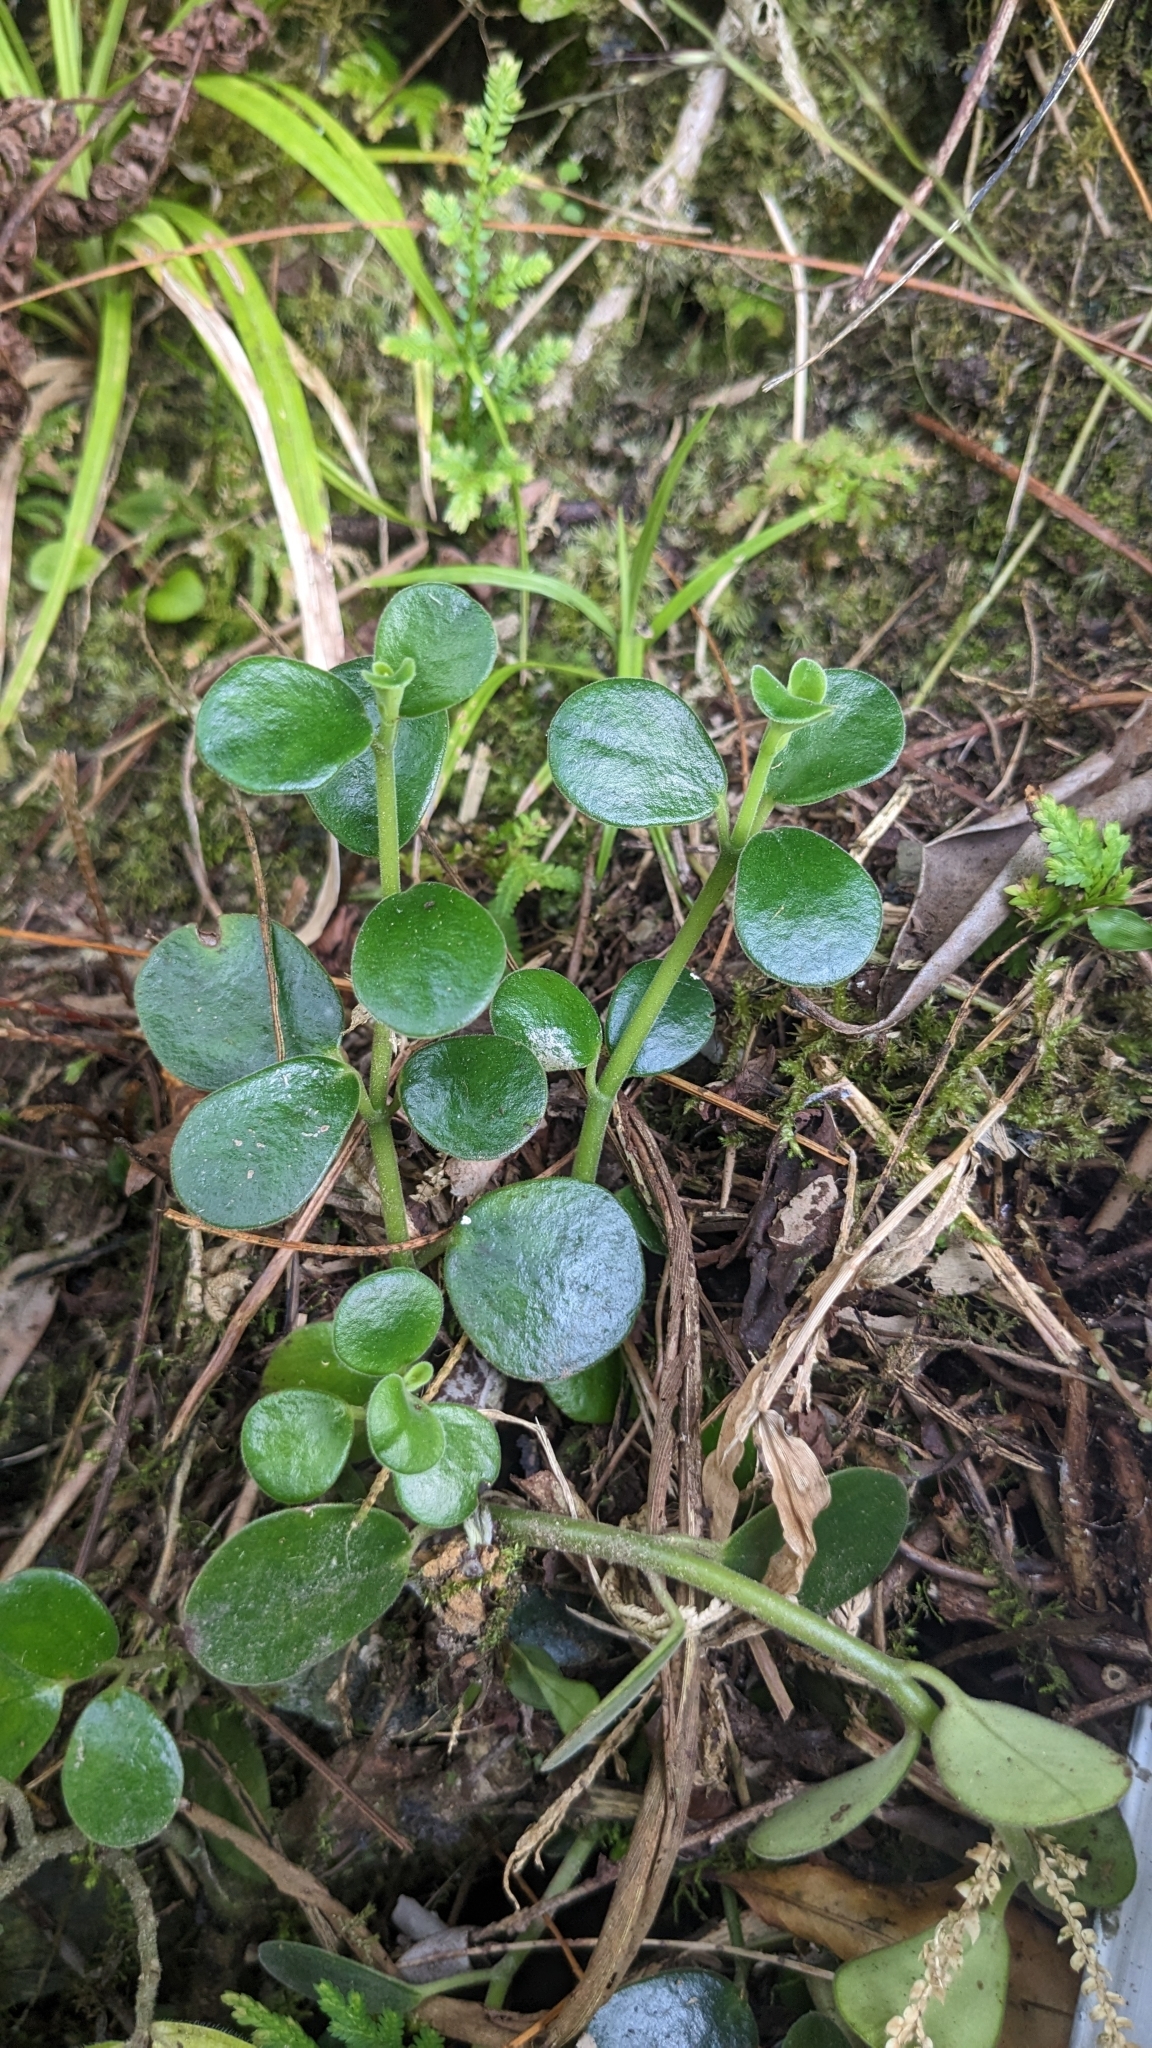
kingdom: Plantae
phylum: Tracheophyta
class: Magnoliopsida
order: Piperales
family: Piperaceae
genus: Peperomia
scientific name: Peperomia japonica
